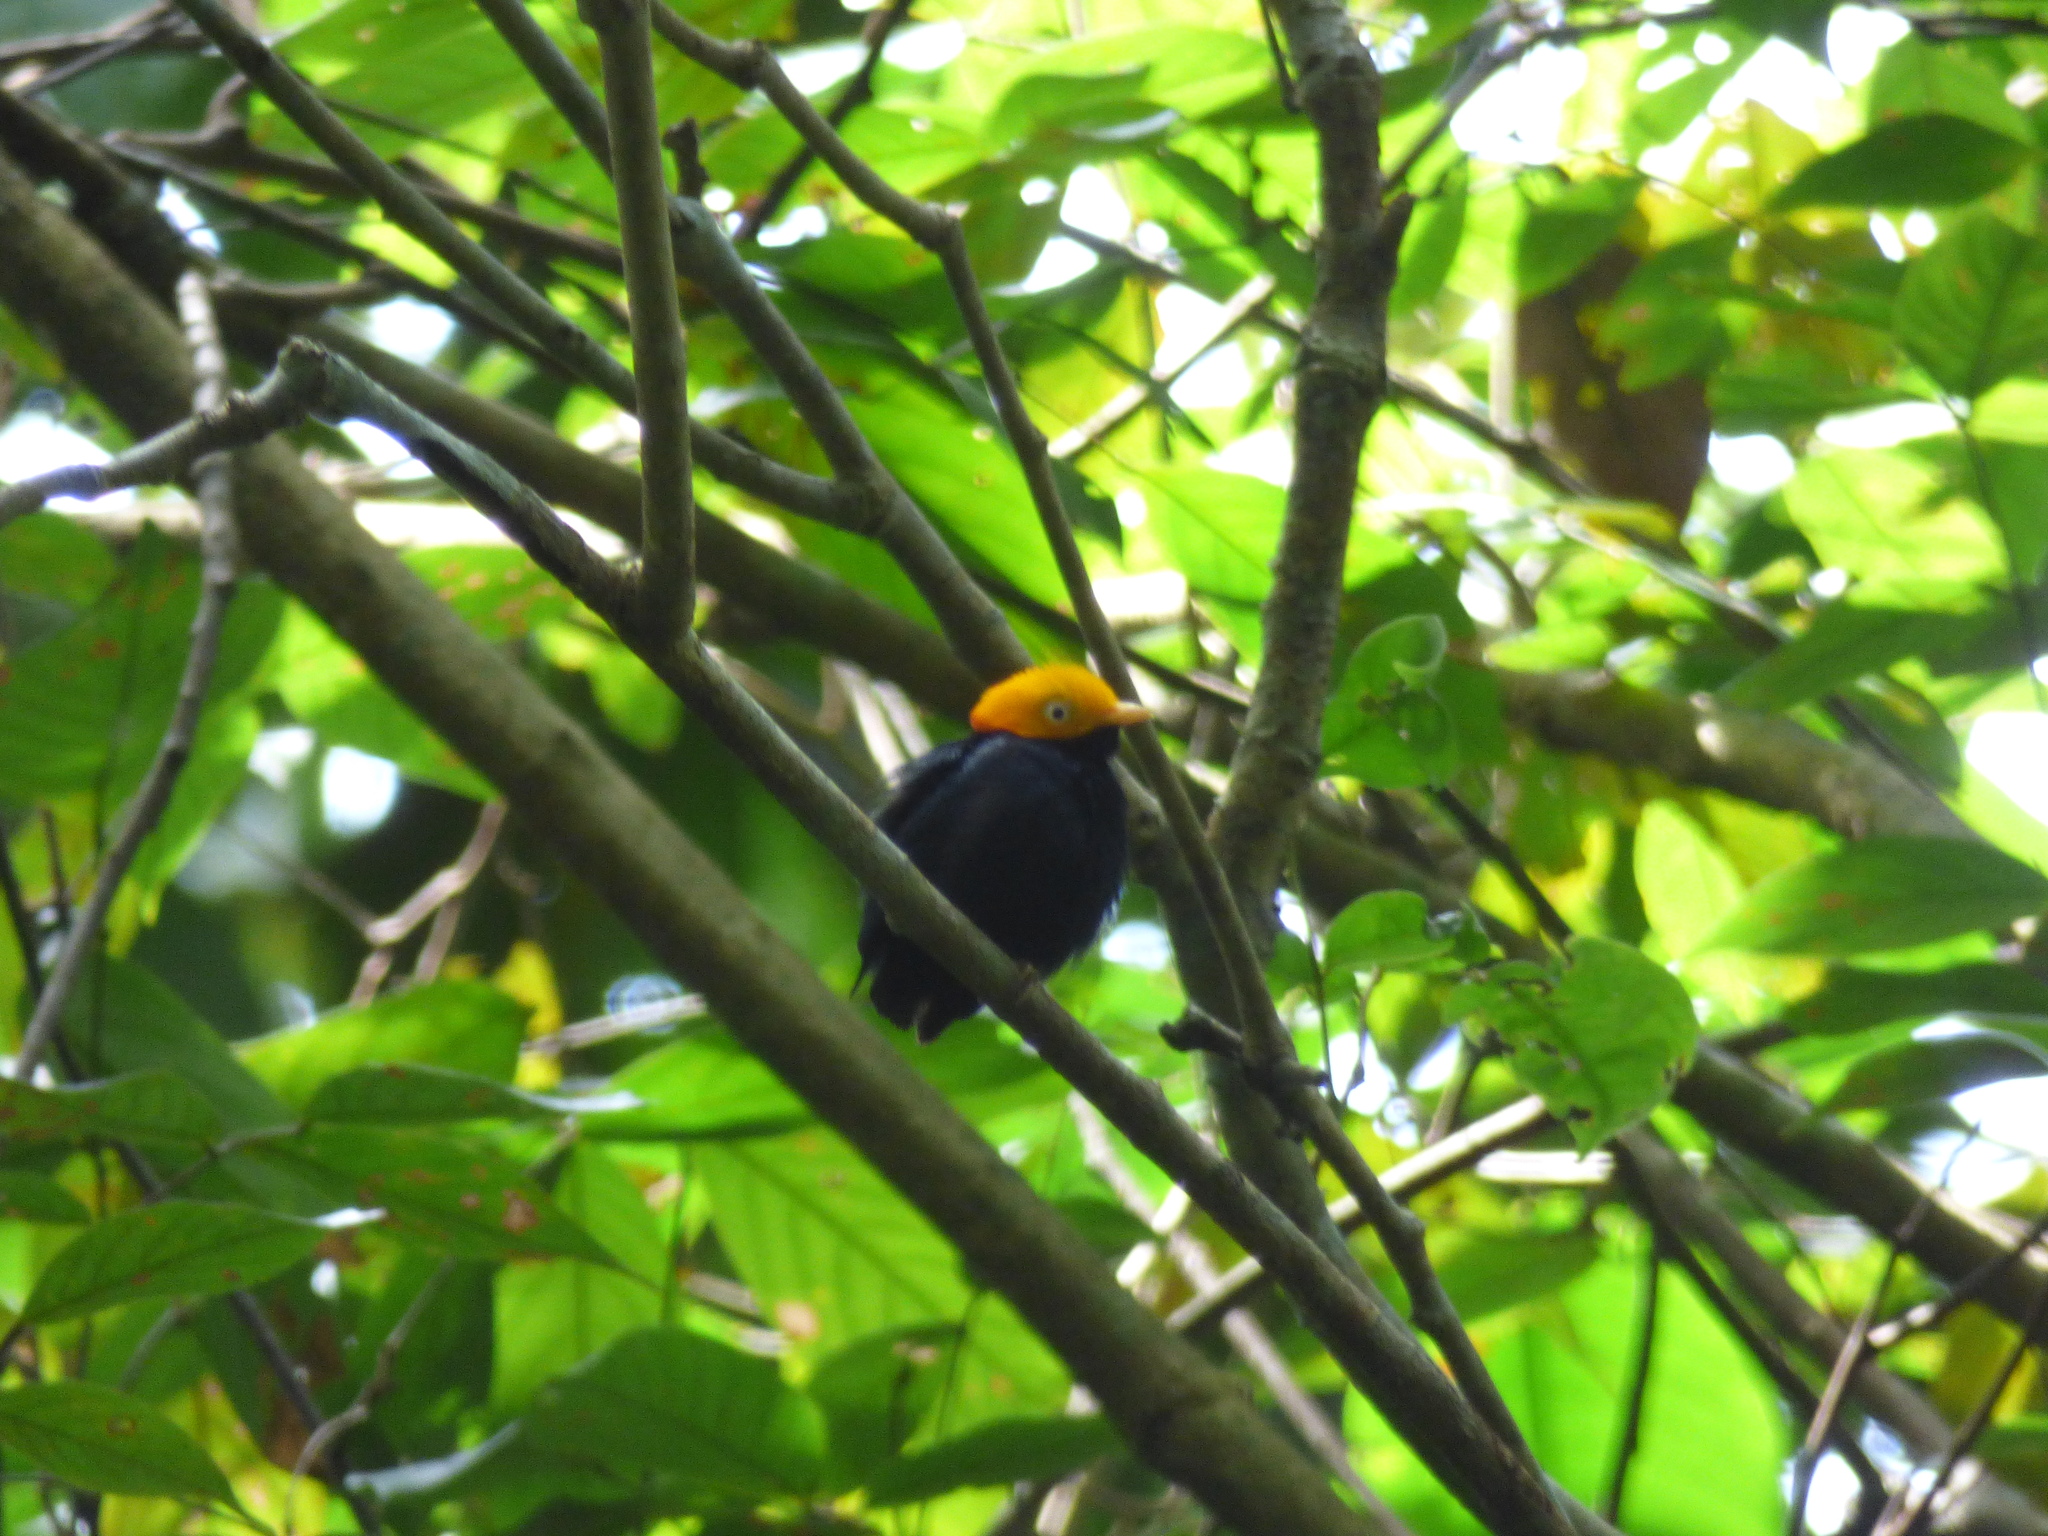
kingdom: Animalia
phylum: Chordata
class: Aves
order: Passeriformes
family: Pipridae
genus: Pipra
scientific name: Pipra erythrocephala
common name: Golden-headed manakin
